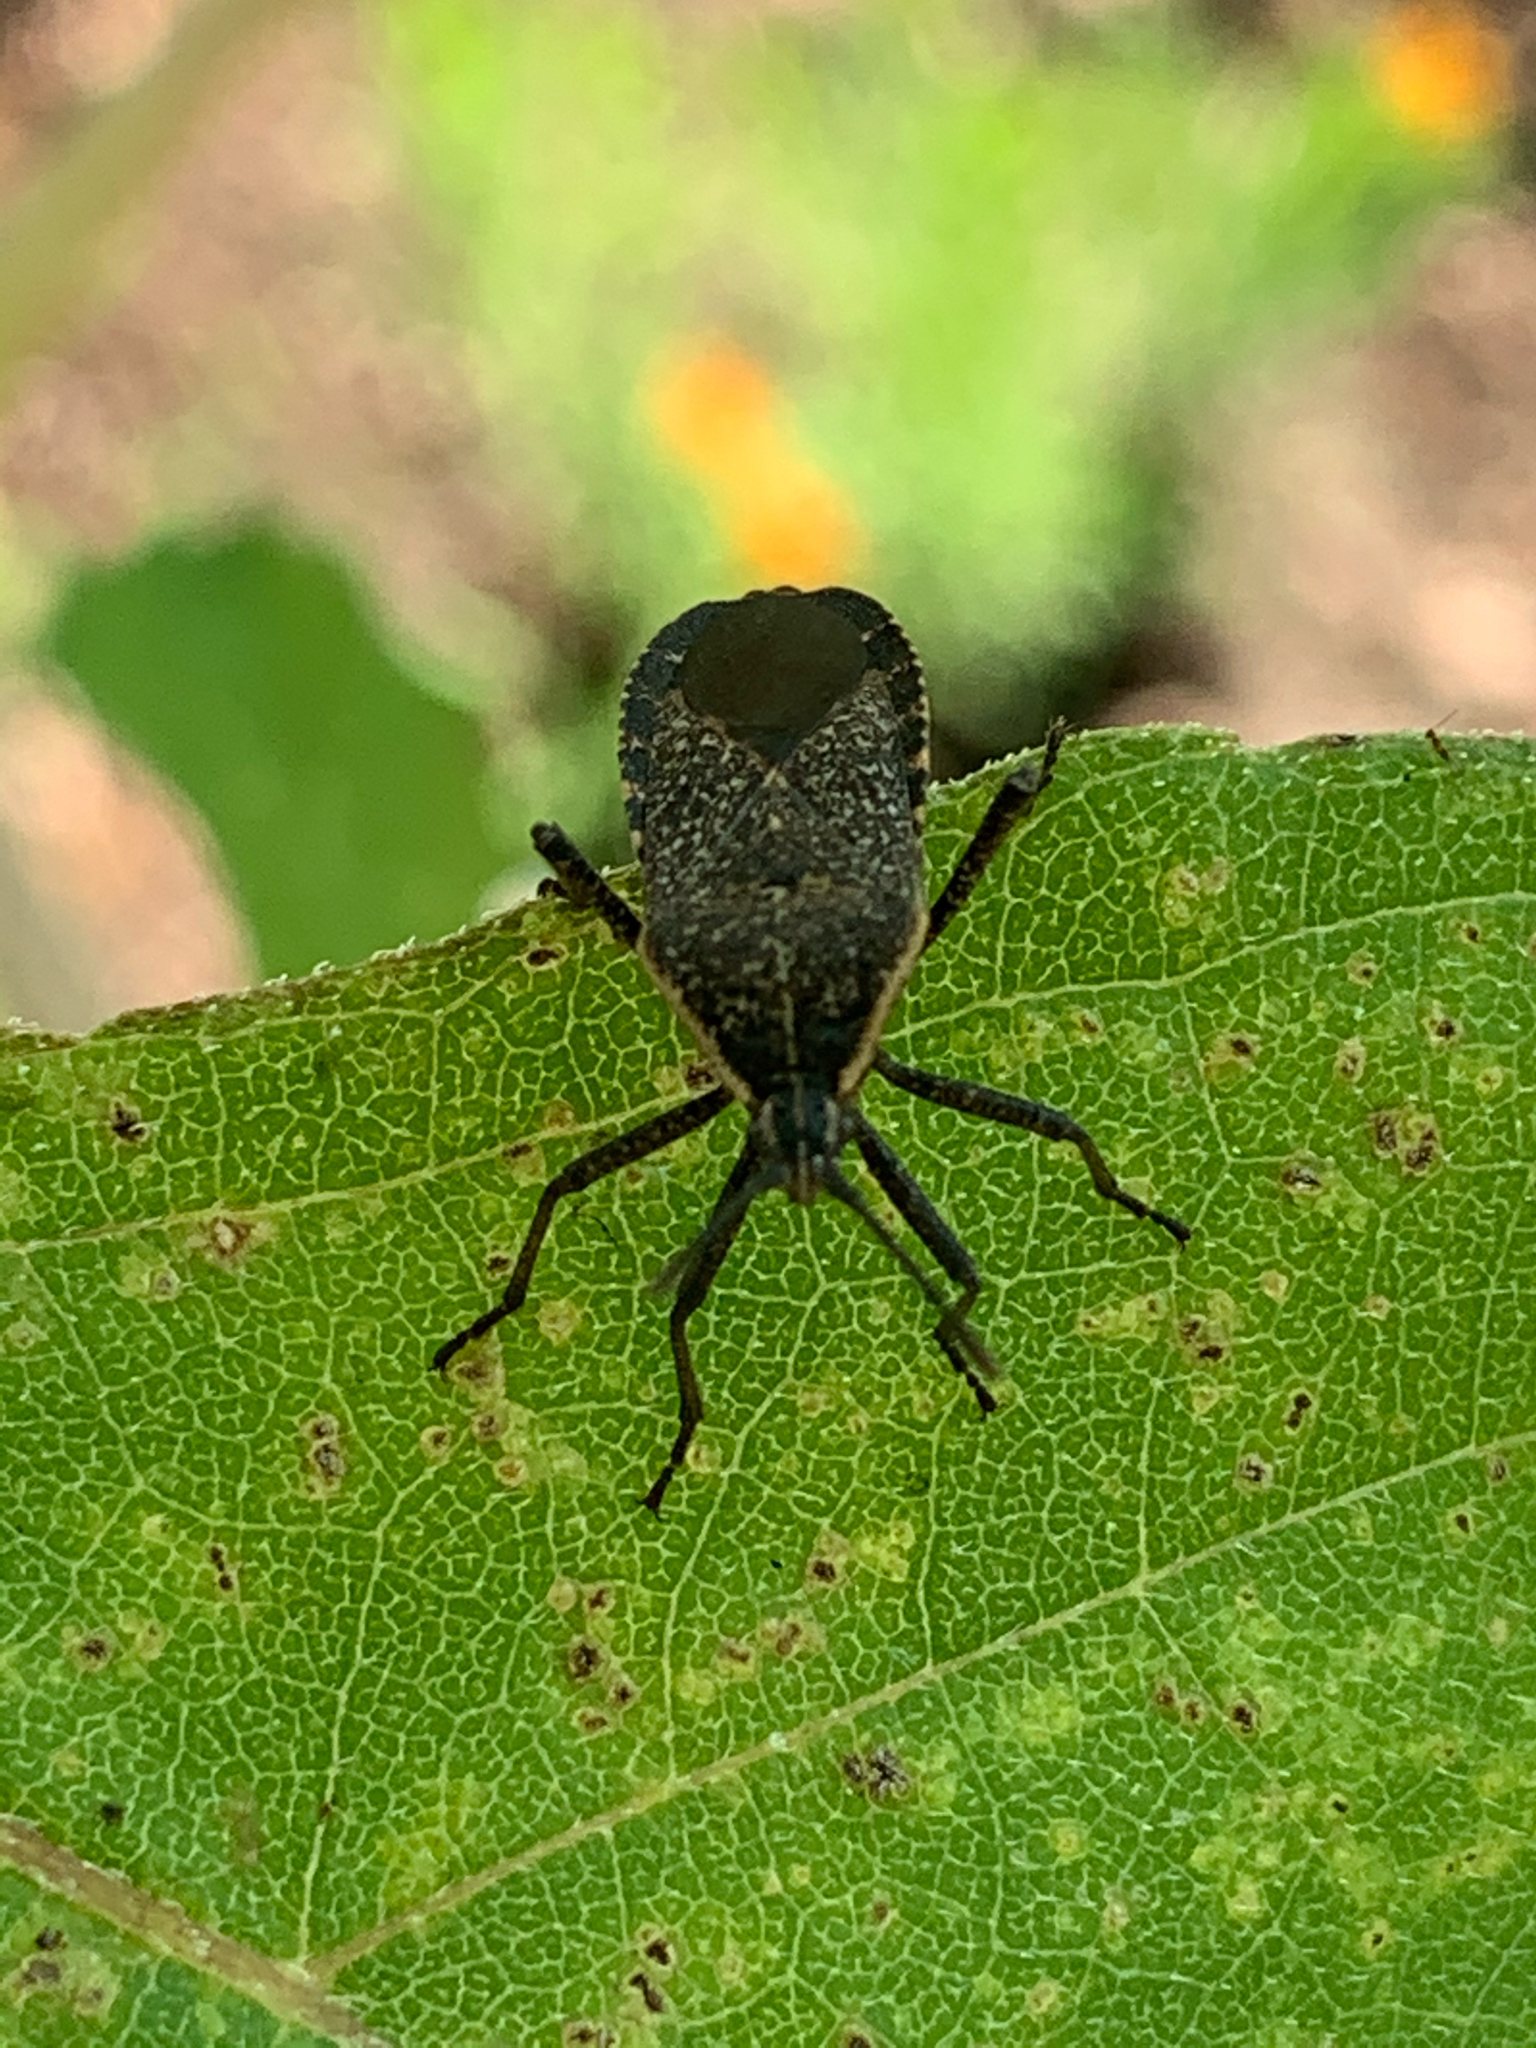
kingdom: Animalia
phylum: Arthropoda
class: Insecta
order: Hemiptera
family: Coreidae
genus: Anasa
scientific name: Anasa tristis
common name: Squash bug
